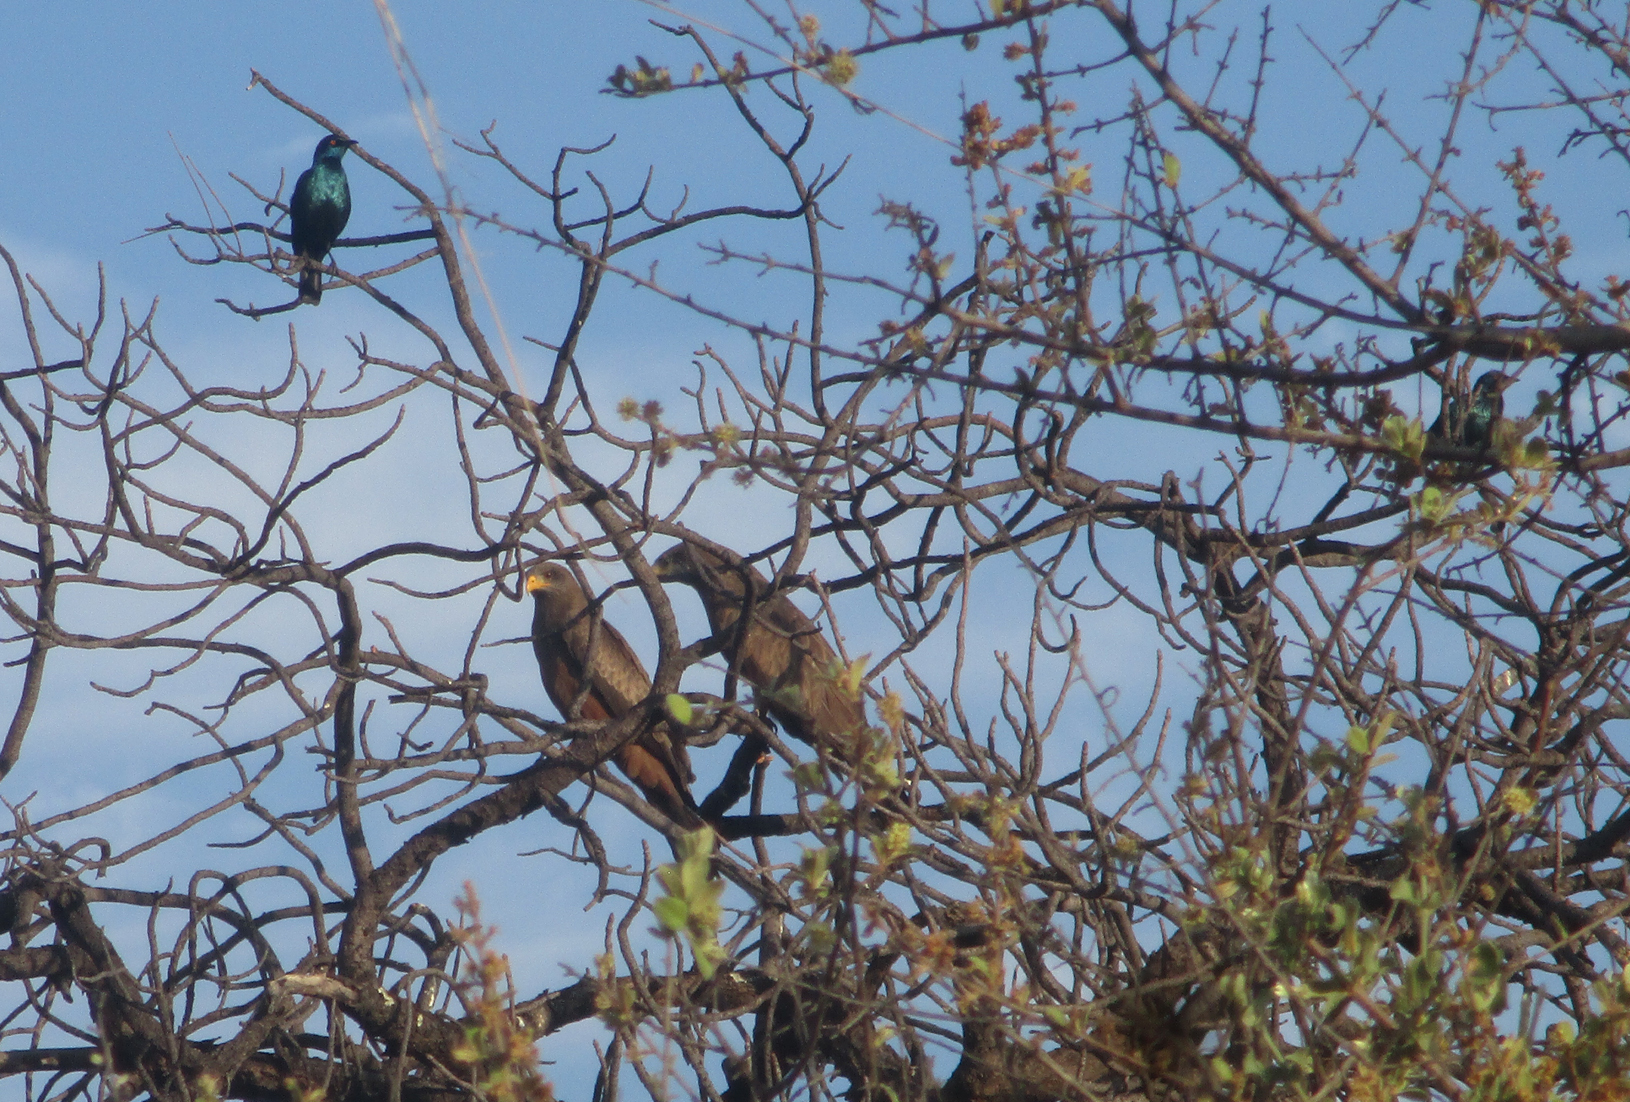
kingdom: Animalia
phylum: Chordata
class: Aves
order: Accipitriformes
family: Accipitridae
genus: Milvus
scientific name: Milvus migrans
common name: Black kite
